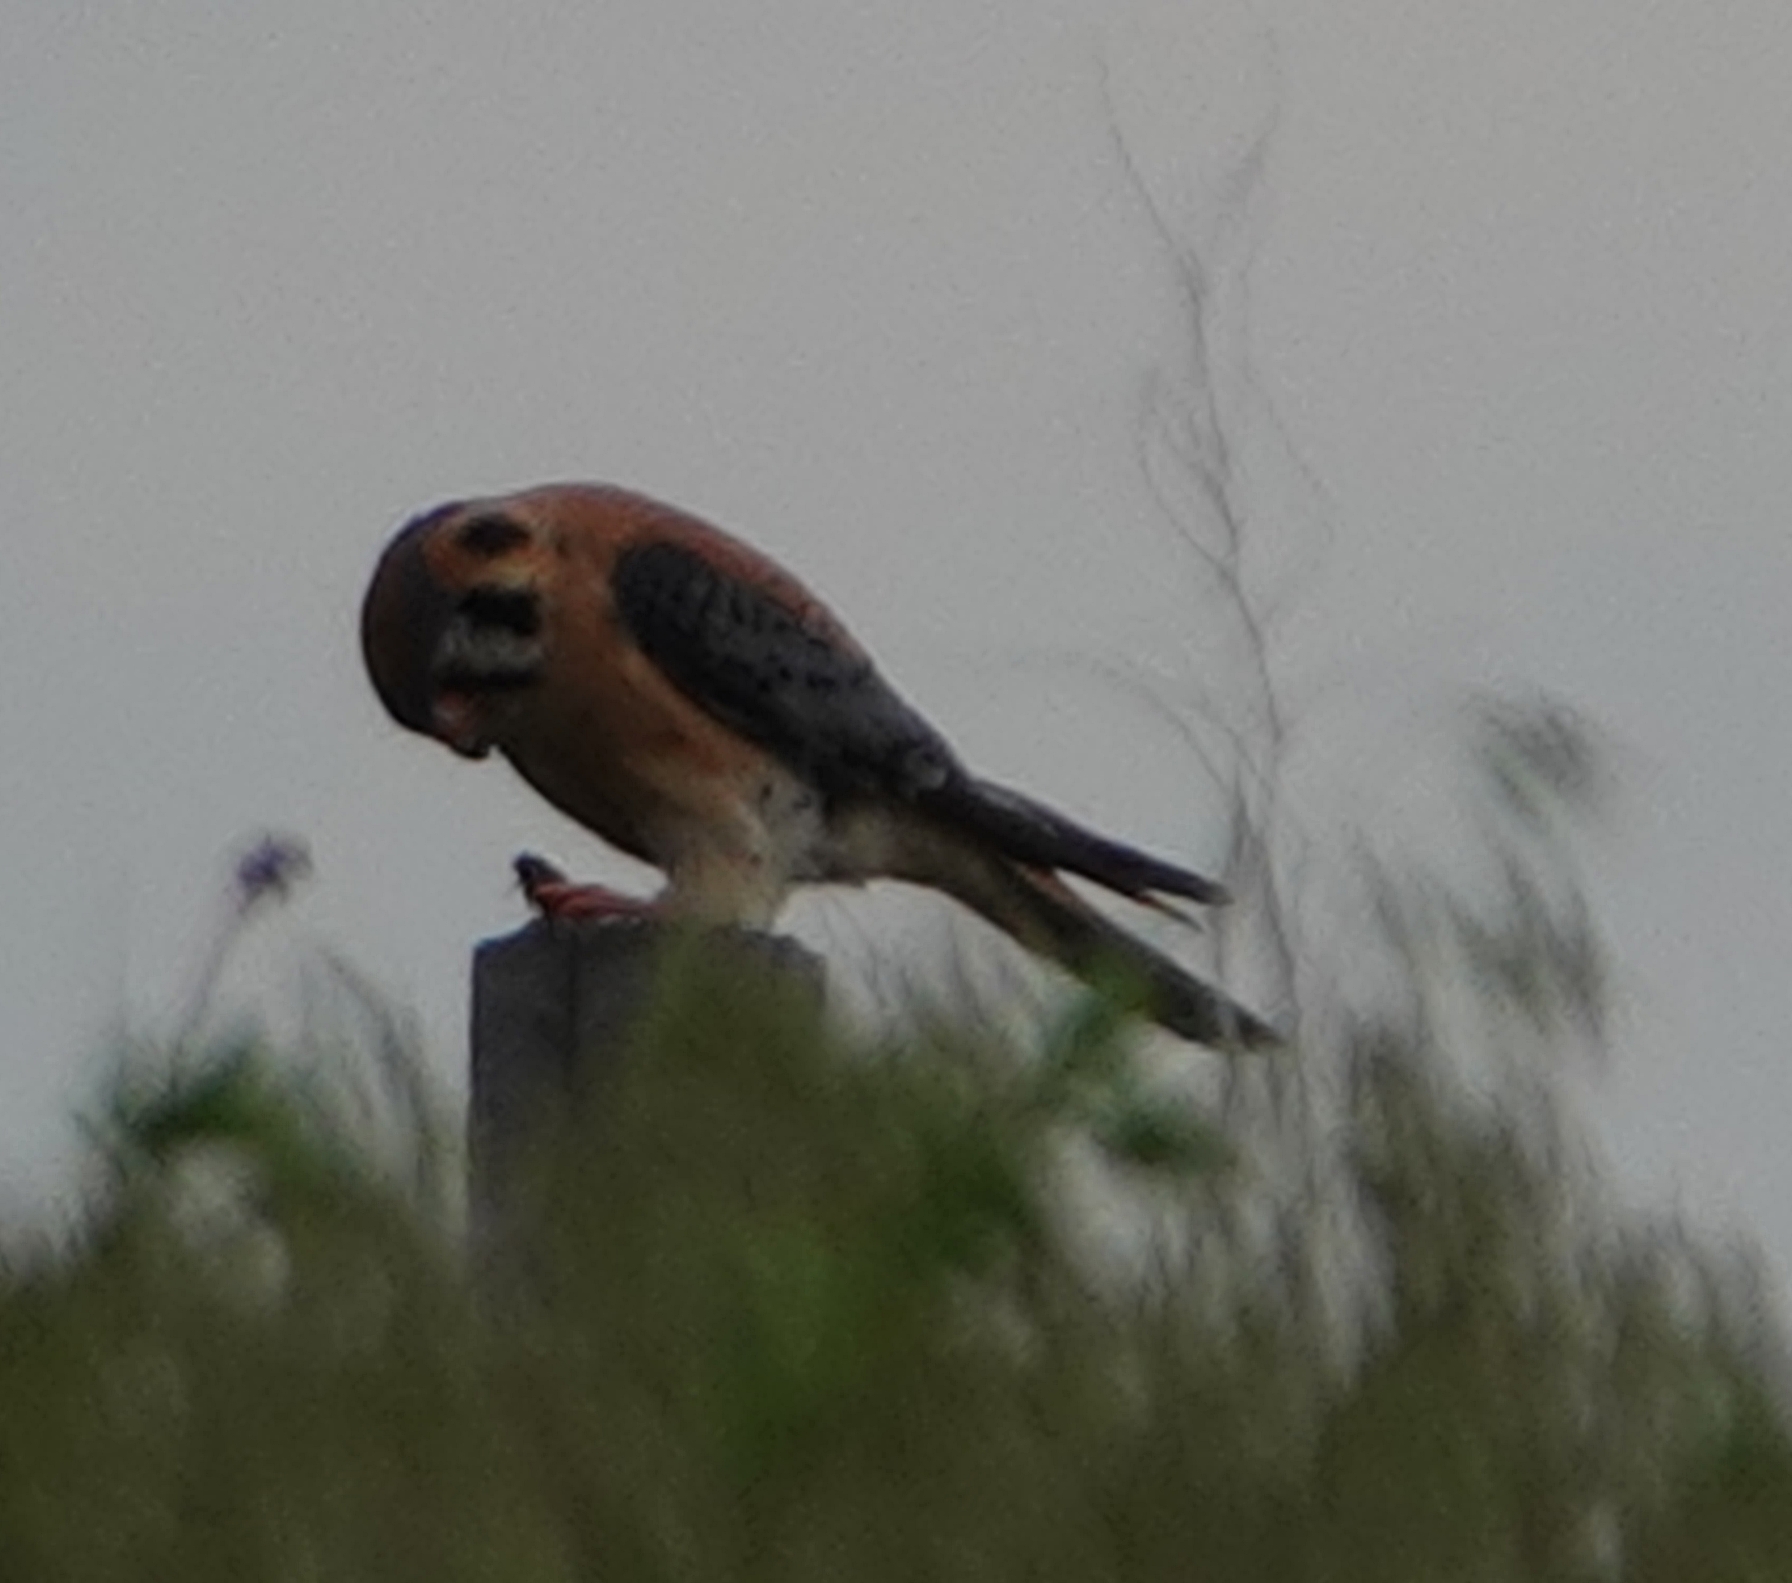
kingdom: Animalia
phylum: Chordata
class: Aves
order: Falconiformes
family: Falconidae
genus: Falco
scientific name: Falco sparverius
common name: American kestrel
